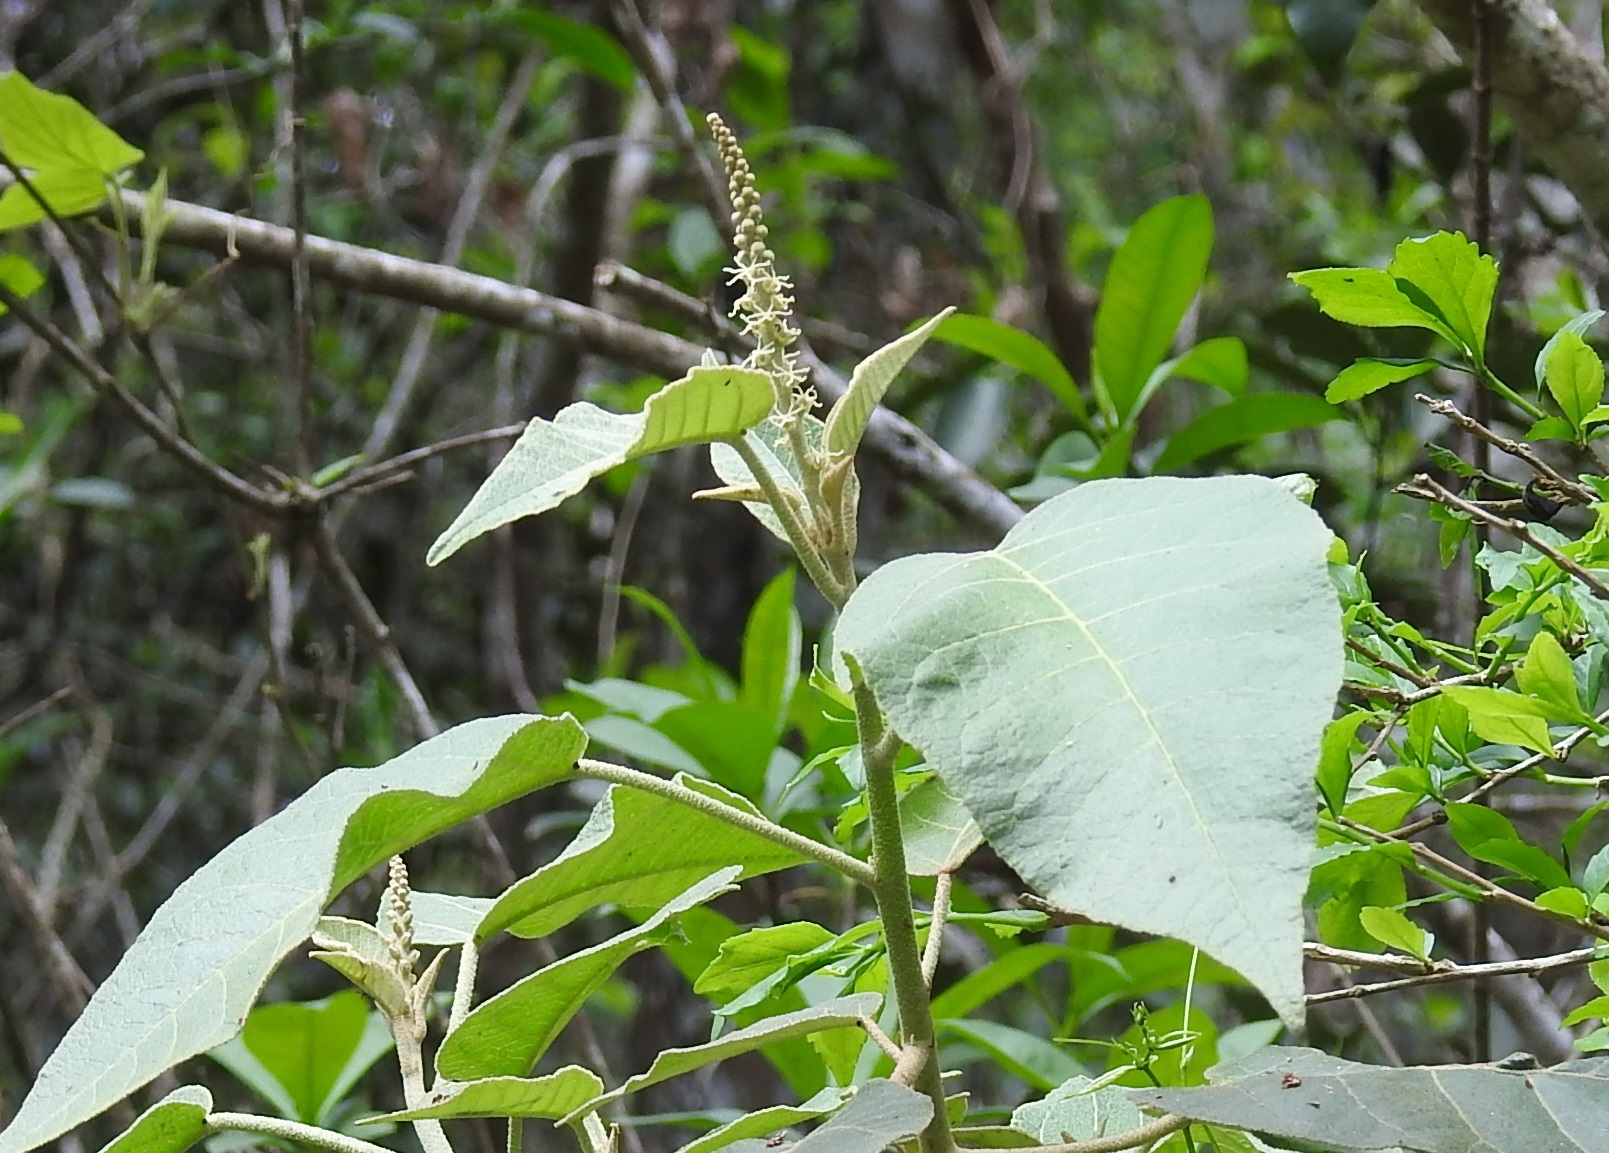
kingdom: Plantae
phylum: Tracheophyta
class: Magnoliopsida
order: Malpighiales
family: Euphorbiaceae
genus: Croton
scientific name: Croton morifolius
